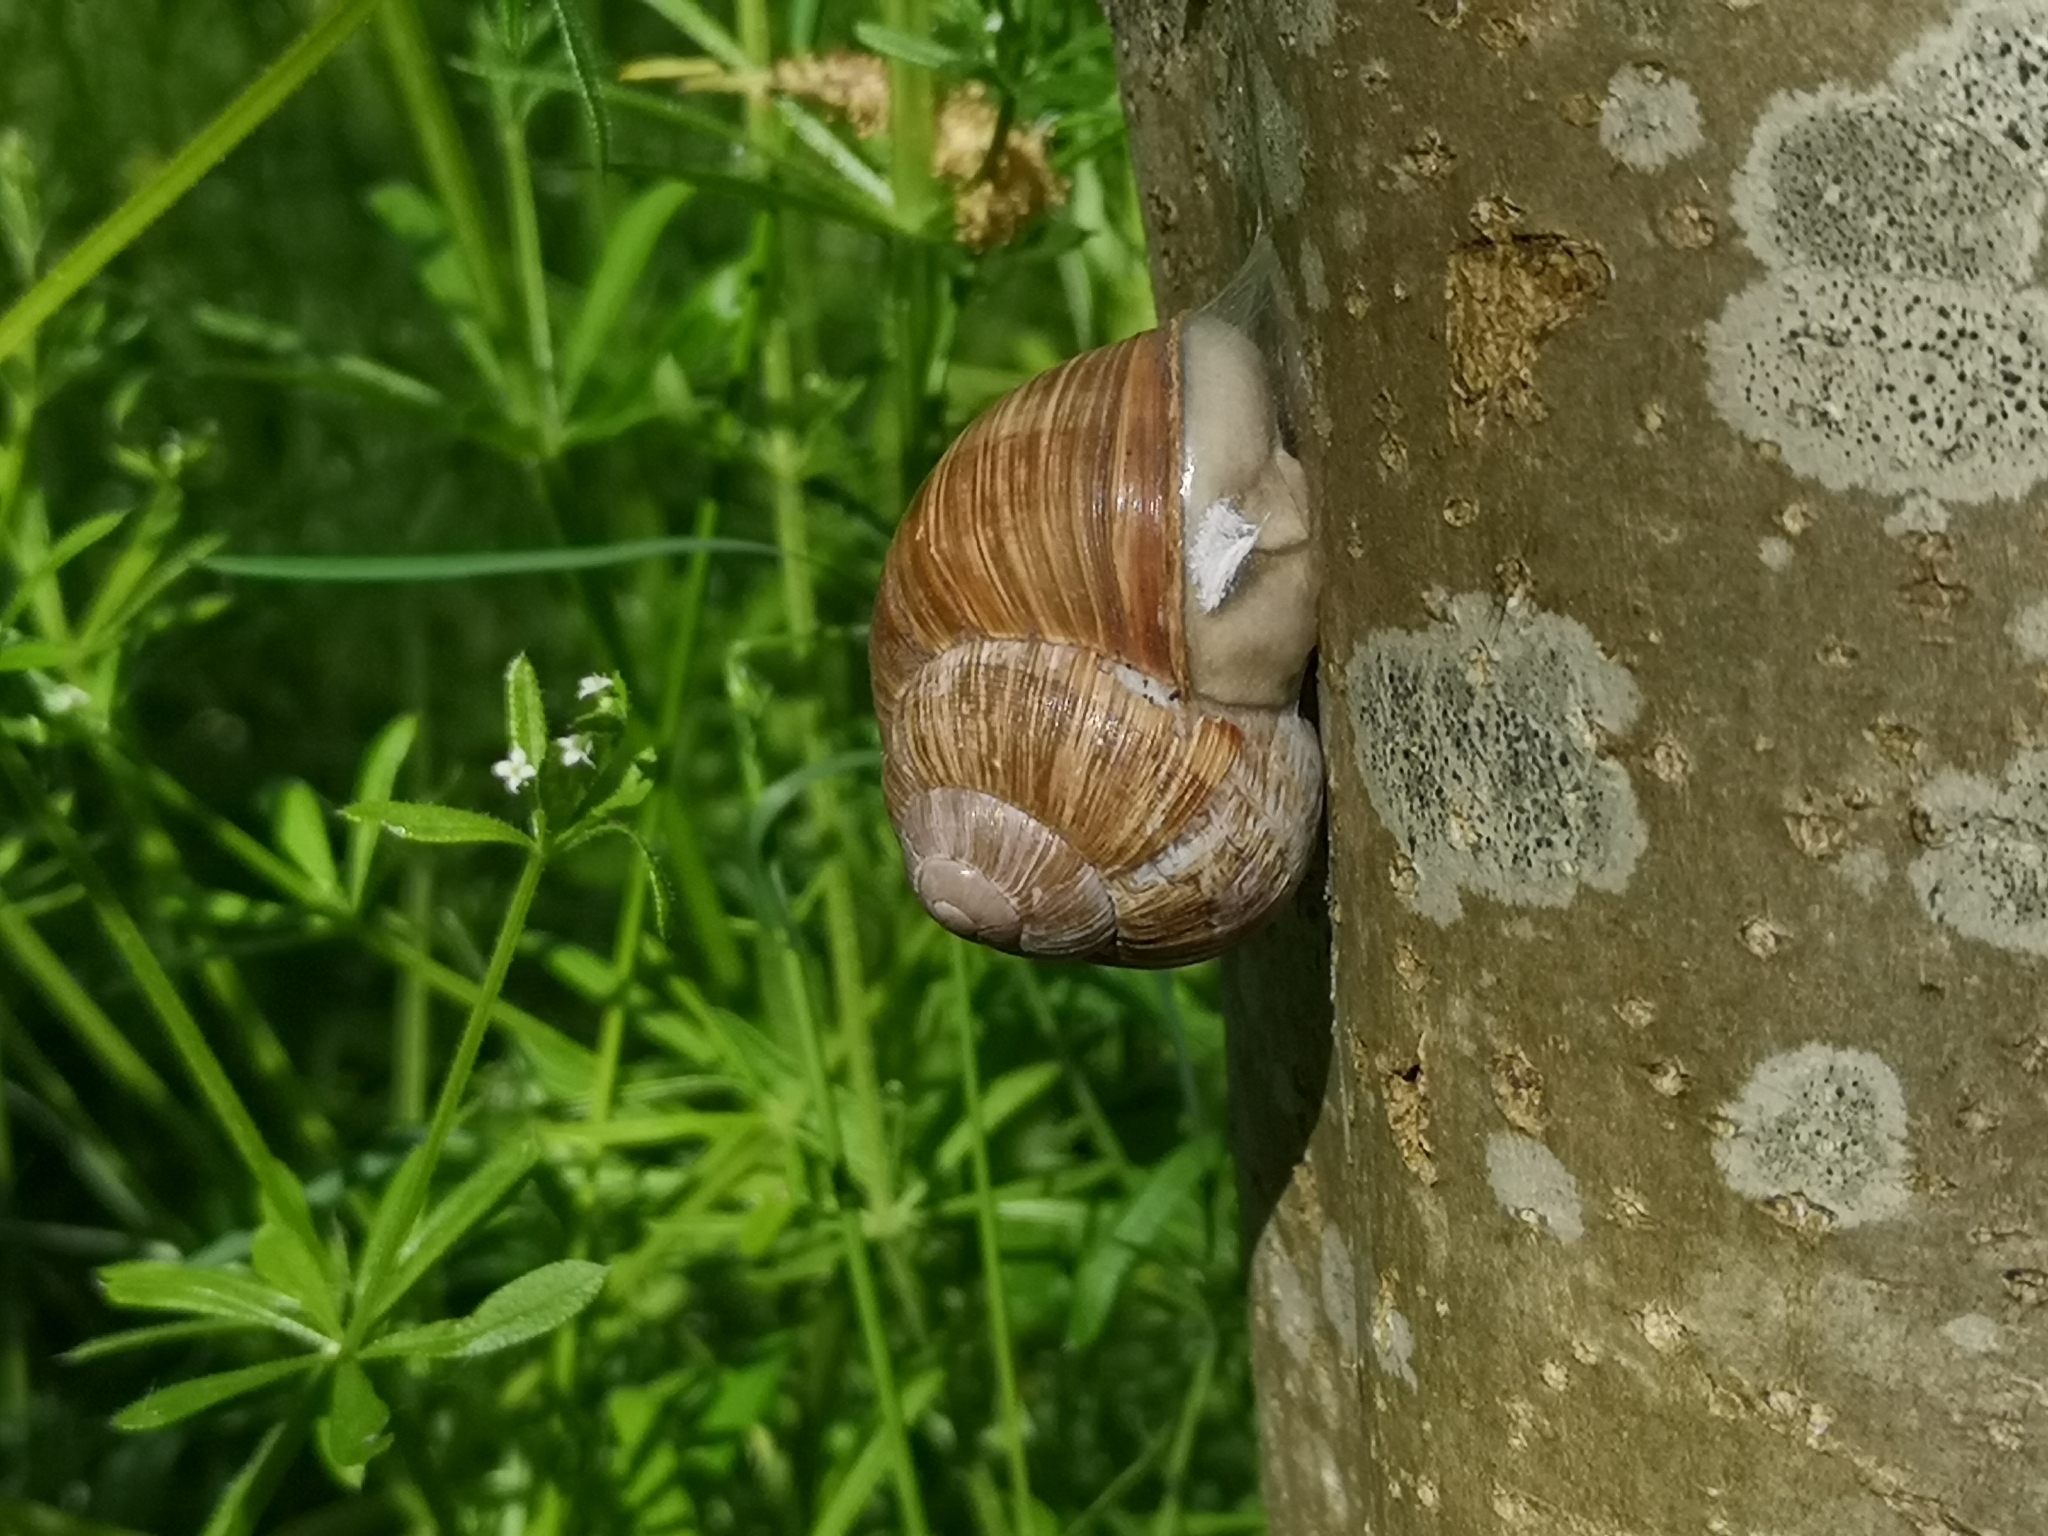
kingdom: Animalia
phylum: Mollusca
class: Gastropoda
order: Stylommatophora
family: Helicidae
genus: Helix
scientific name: Helix pomatia
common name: Roman snail
